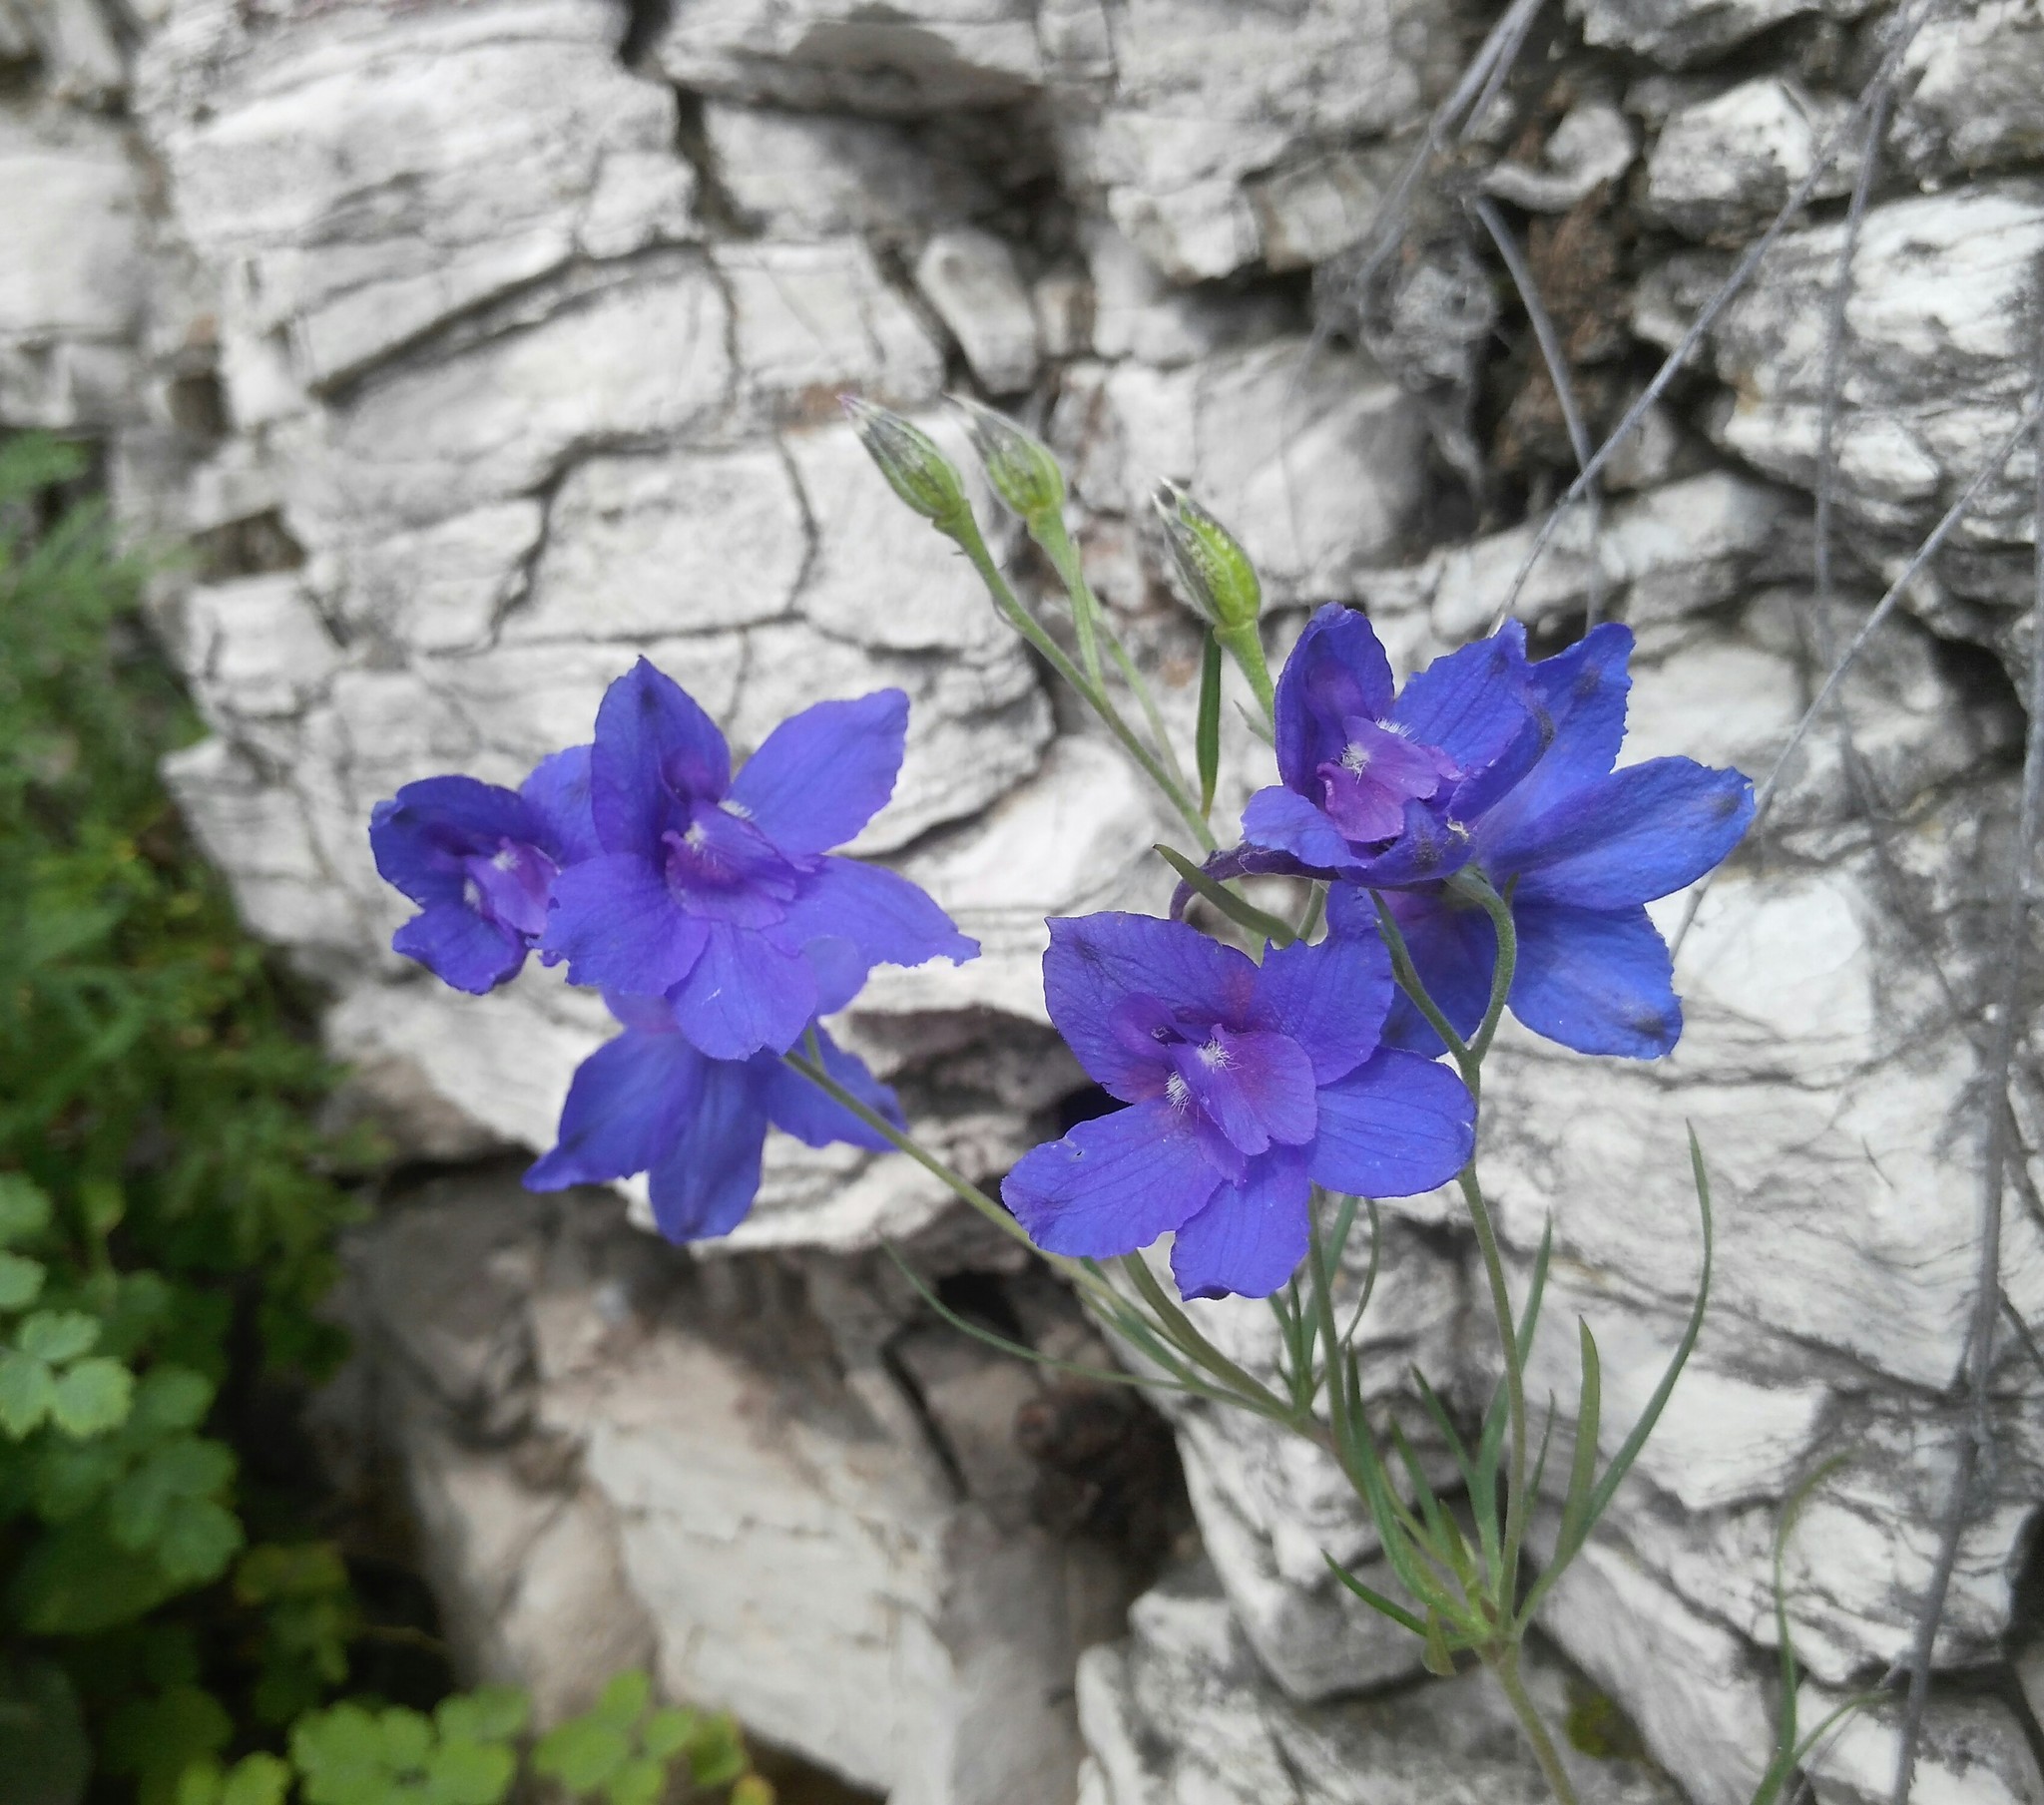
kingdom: Plantae
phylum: Tracheophyta
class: Magnoliopsida
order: Ranunculales
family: Ranunculaceae
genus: Delphinium
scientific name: Delphinium grandiflorum
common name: Siberian larkspur
